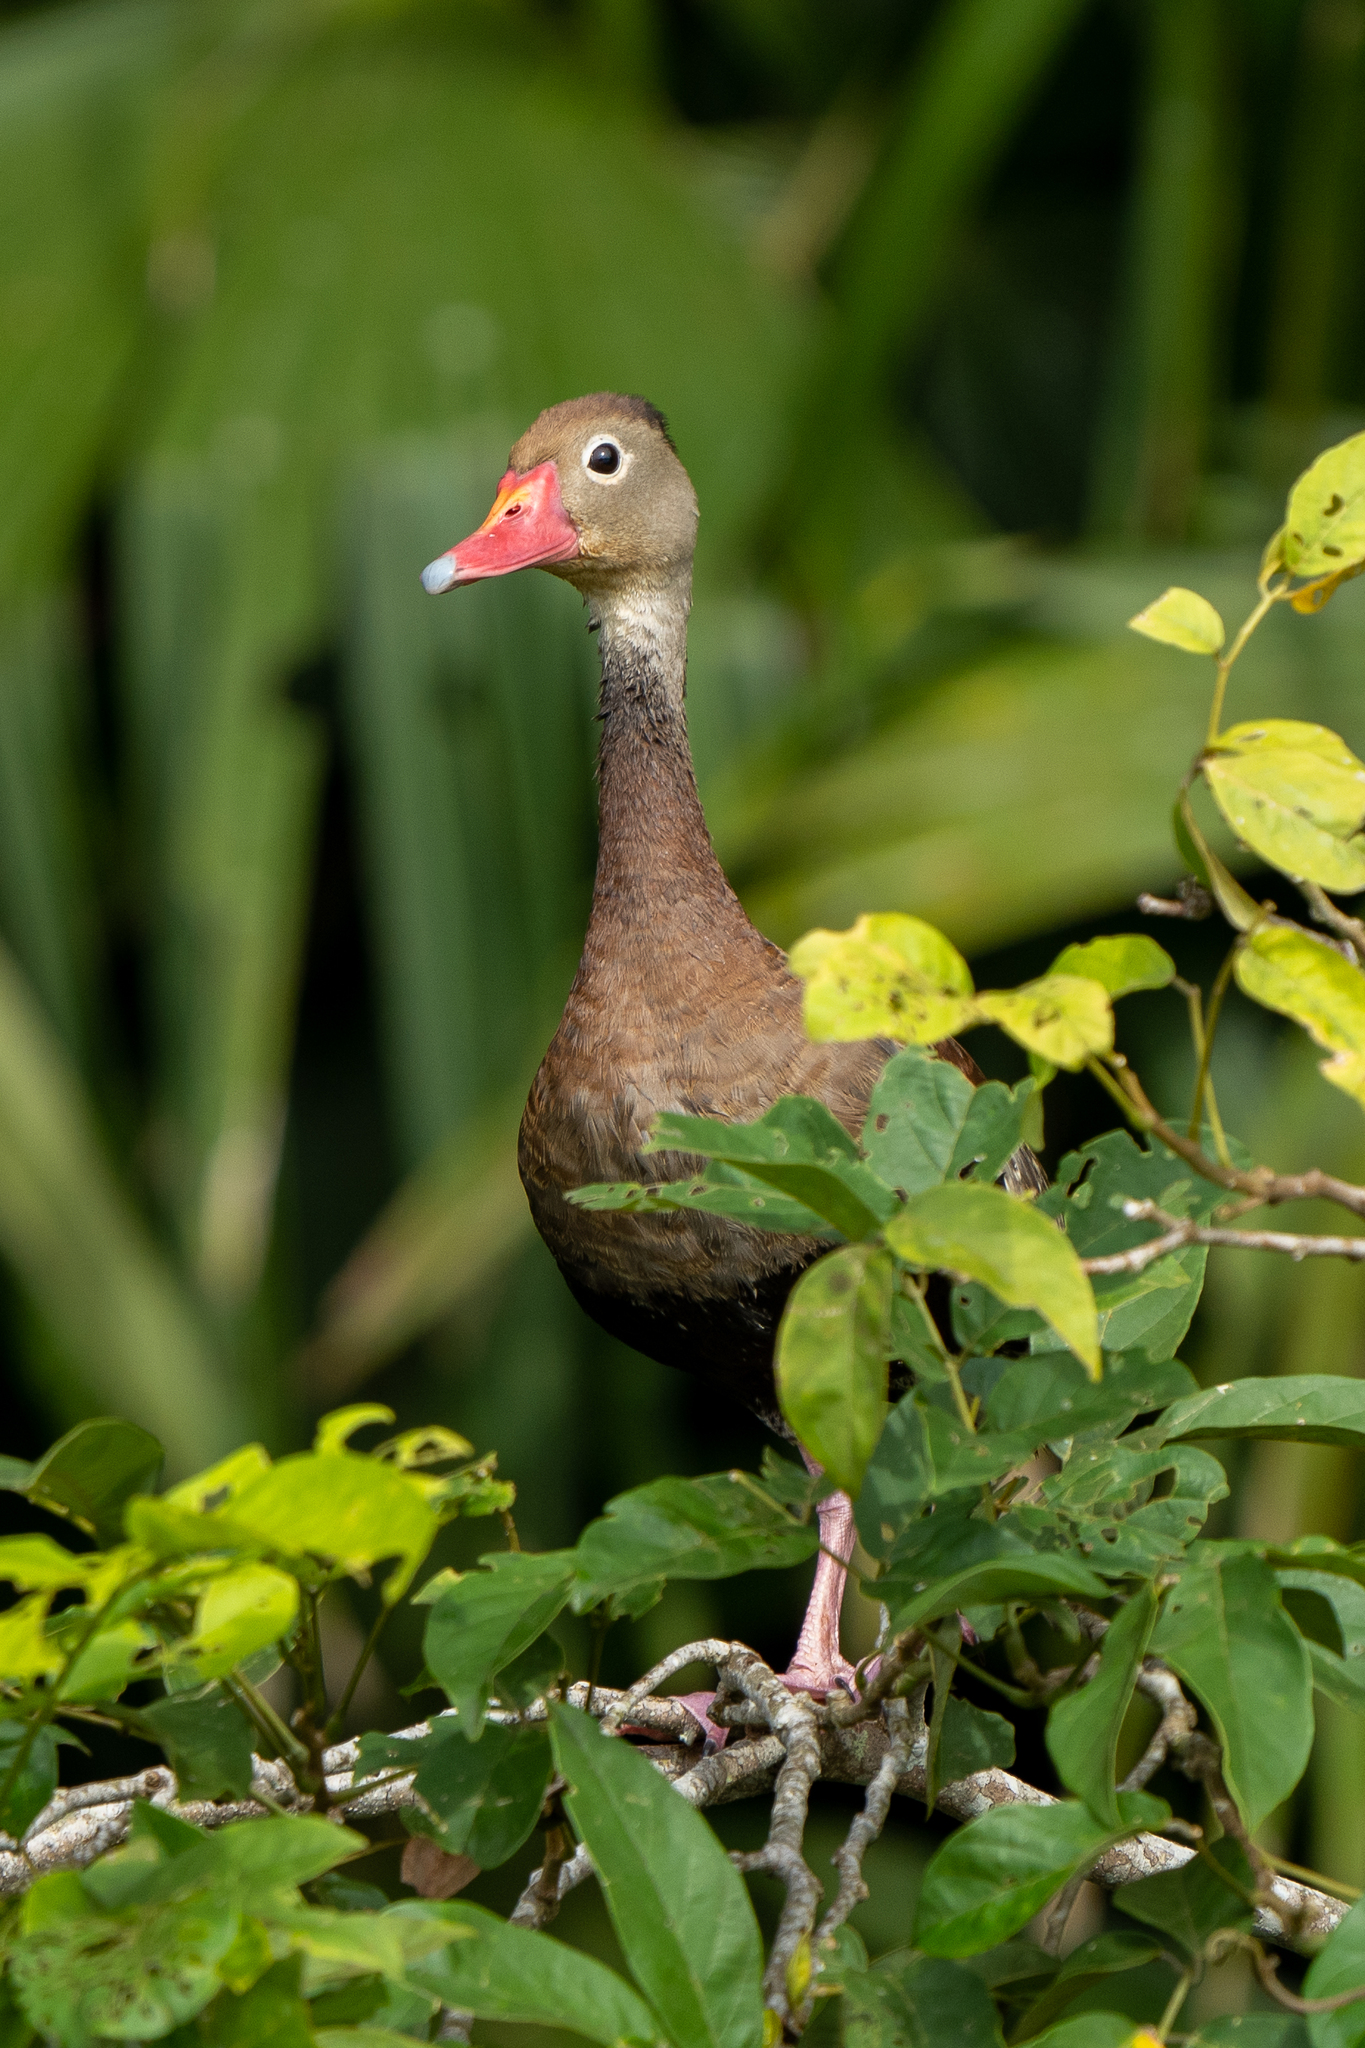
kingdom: Animalia
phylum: Chordata
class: Aves
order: Anseriformes
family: Anatidae
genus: Dendrocygna
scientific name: Dendrocygna autumnalis
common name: Black-bellied whistling duck
